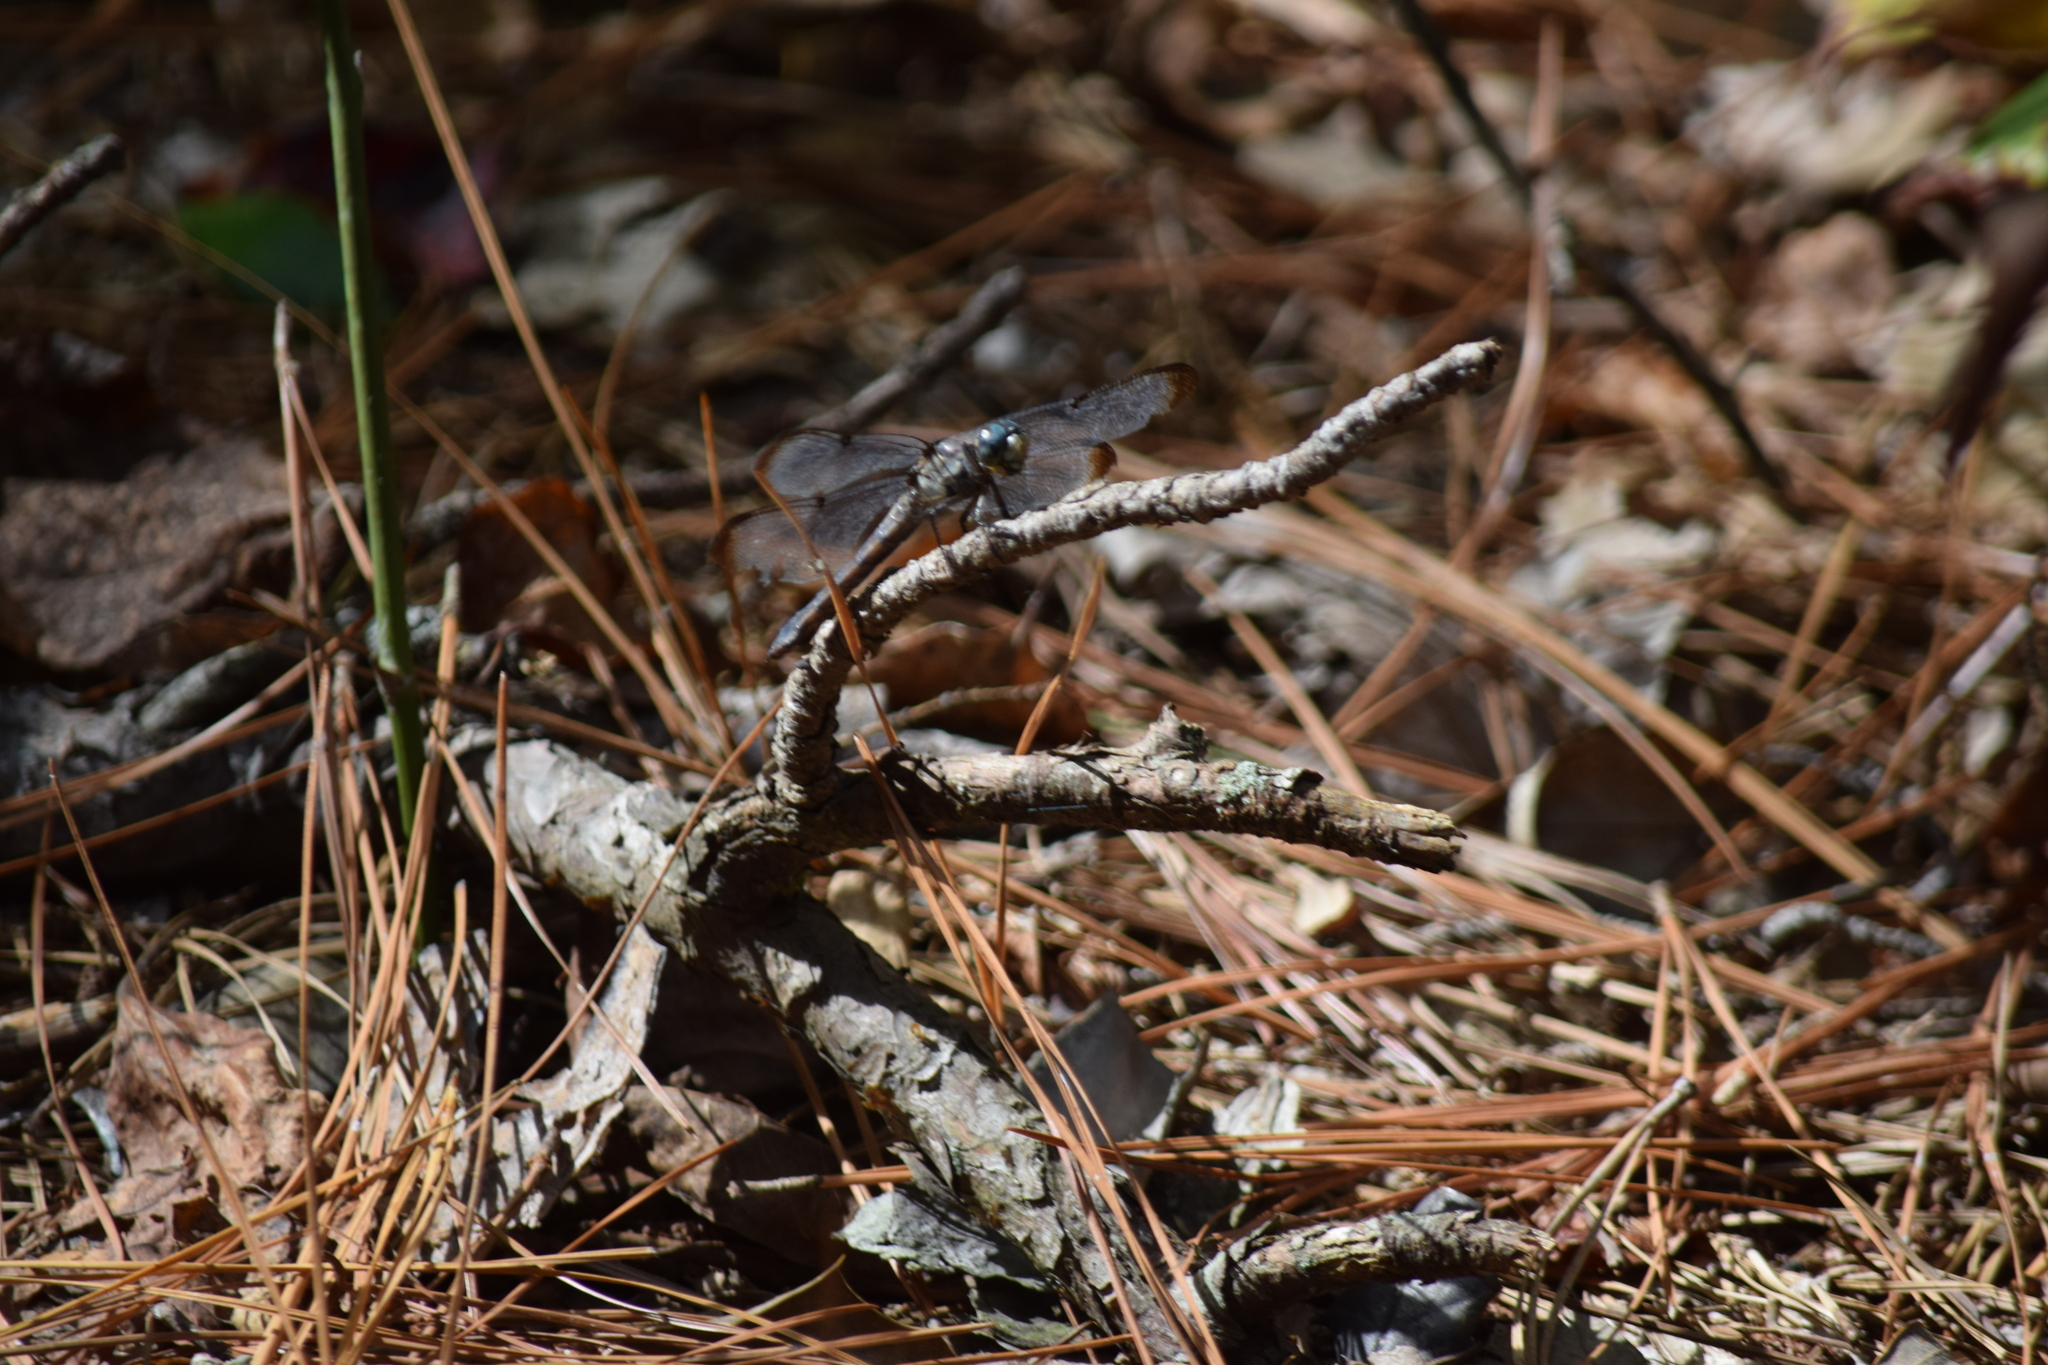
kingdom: Animalia
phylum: Arthropoda
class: Insecta
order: Odonata
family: Libellulidae
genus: Libellula
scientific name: Libellula vibrans
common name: Great blue skimmer
